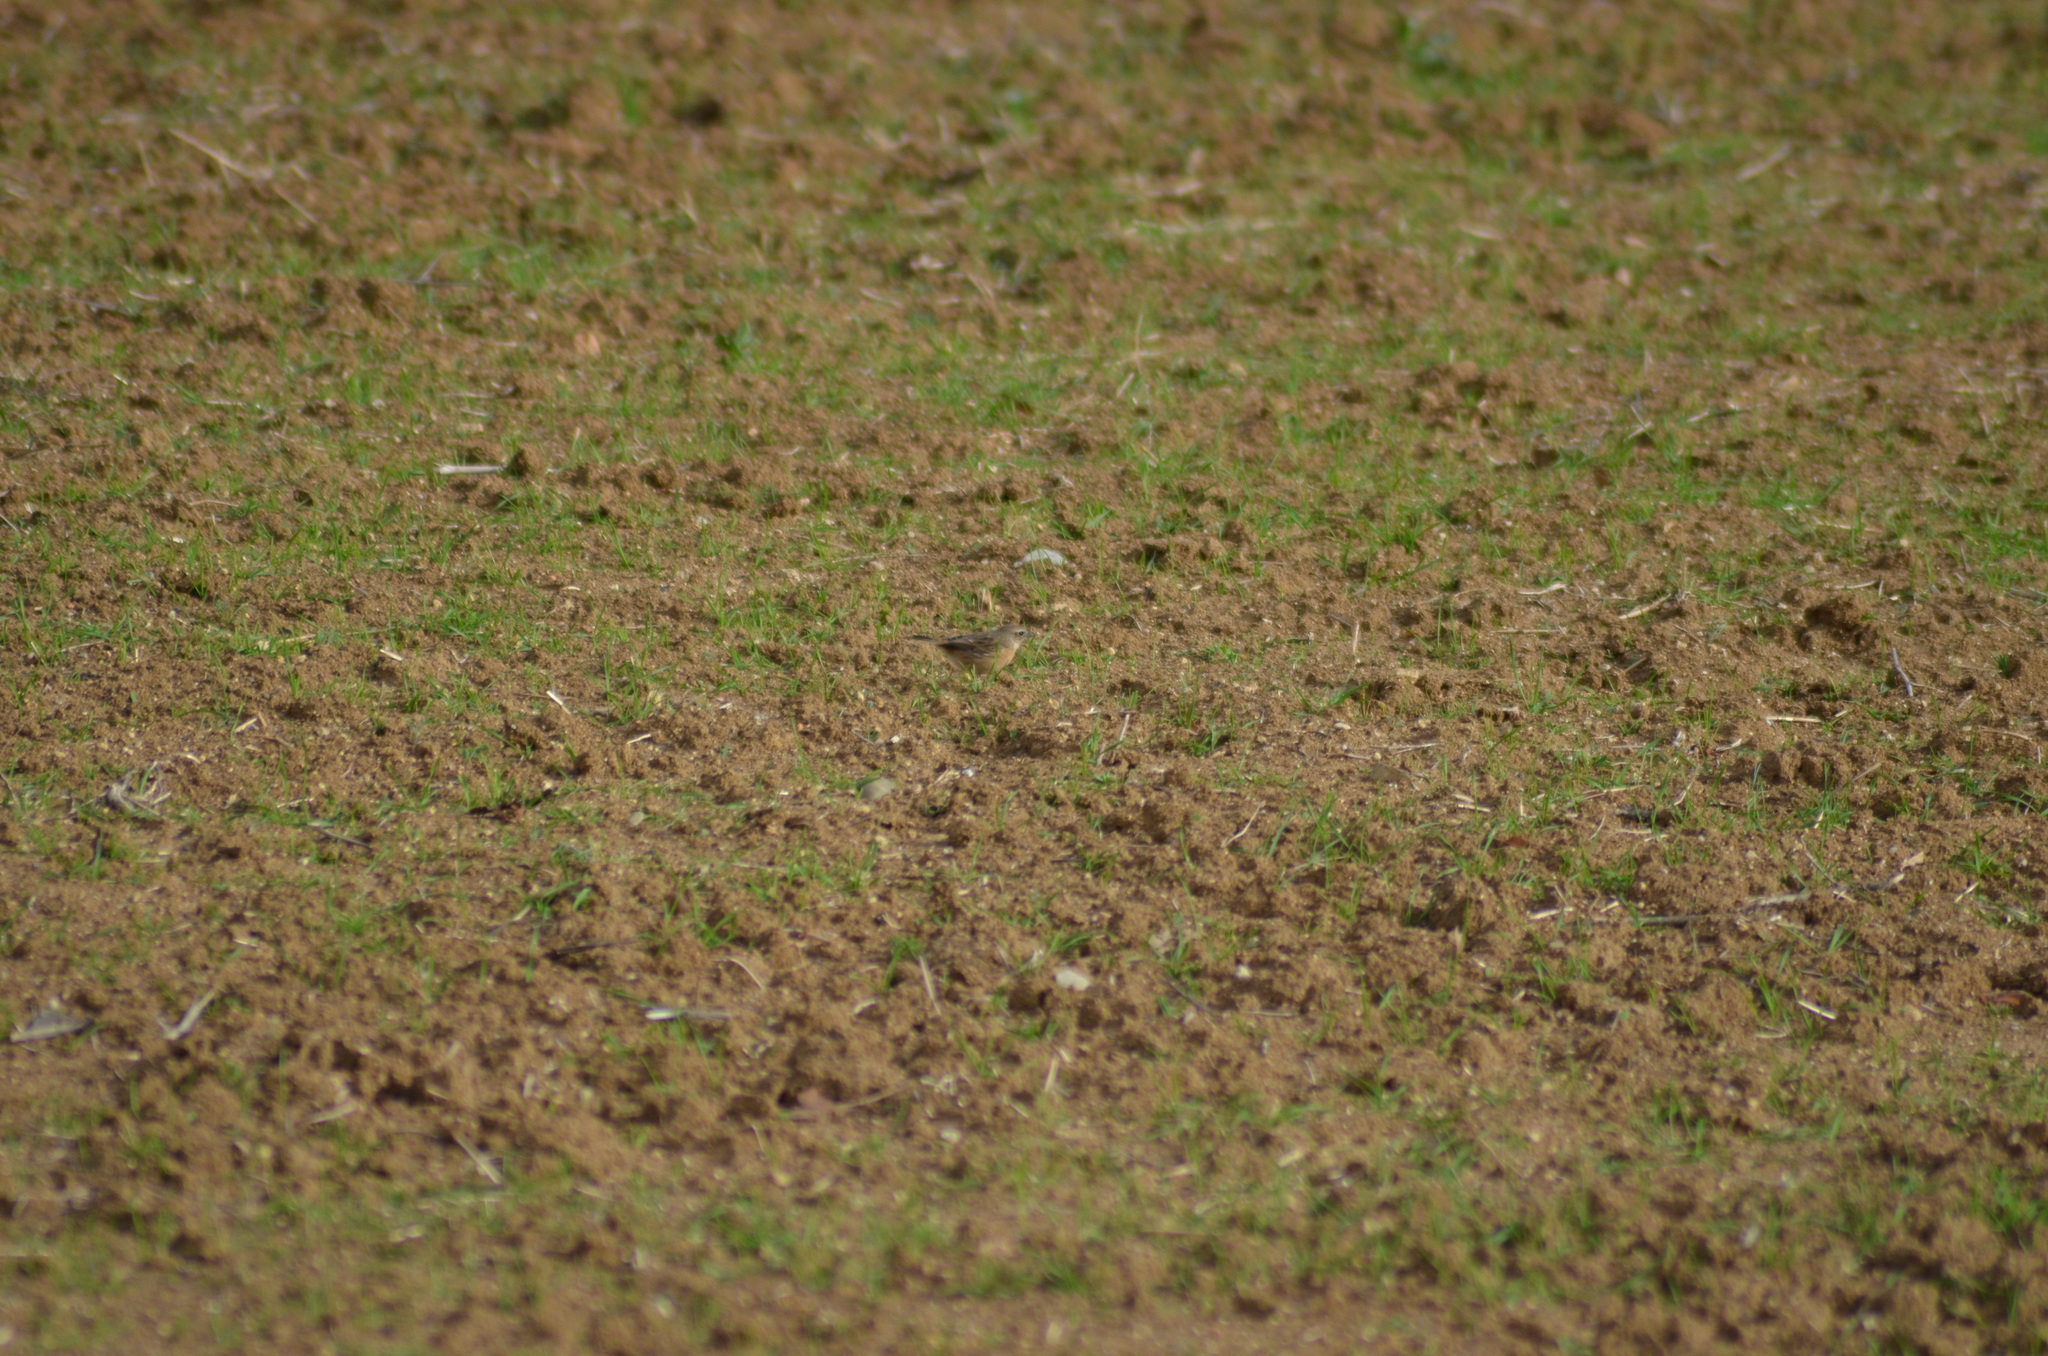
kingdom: Animalia
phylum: Chordata
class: Aves
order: Passeriformes
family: Muscicapidae
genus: Saxicola
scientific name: Saxicola rubicola
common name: European stonechat
